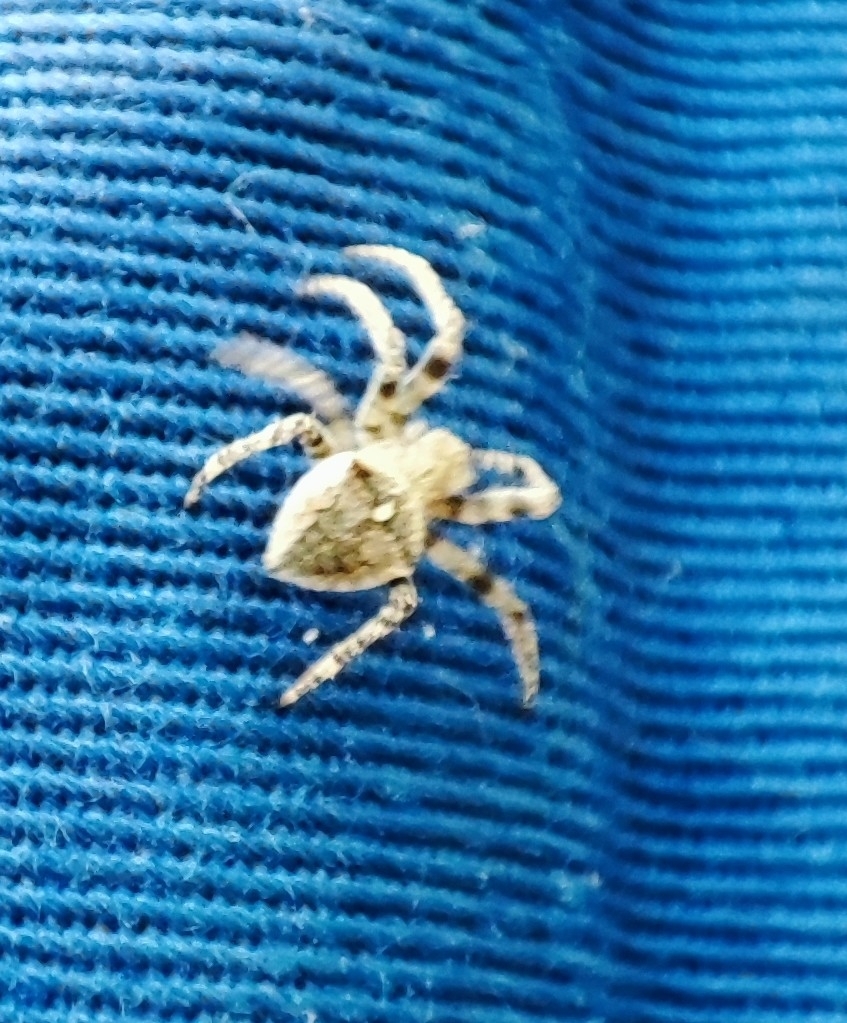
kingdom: Animalia
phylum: Arthropoda
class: Arachnida
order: Araneae
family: Araneidae
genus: Araneus
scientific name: Araneus angulatus
